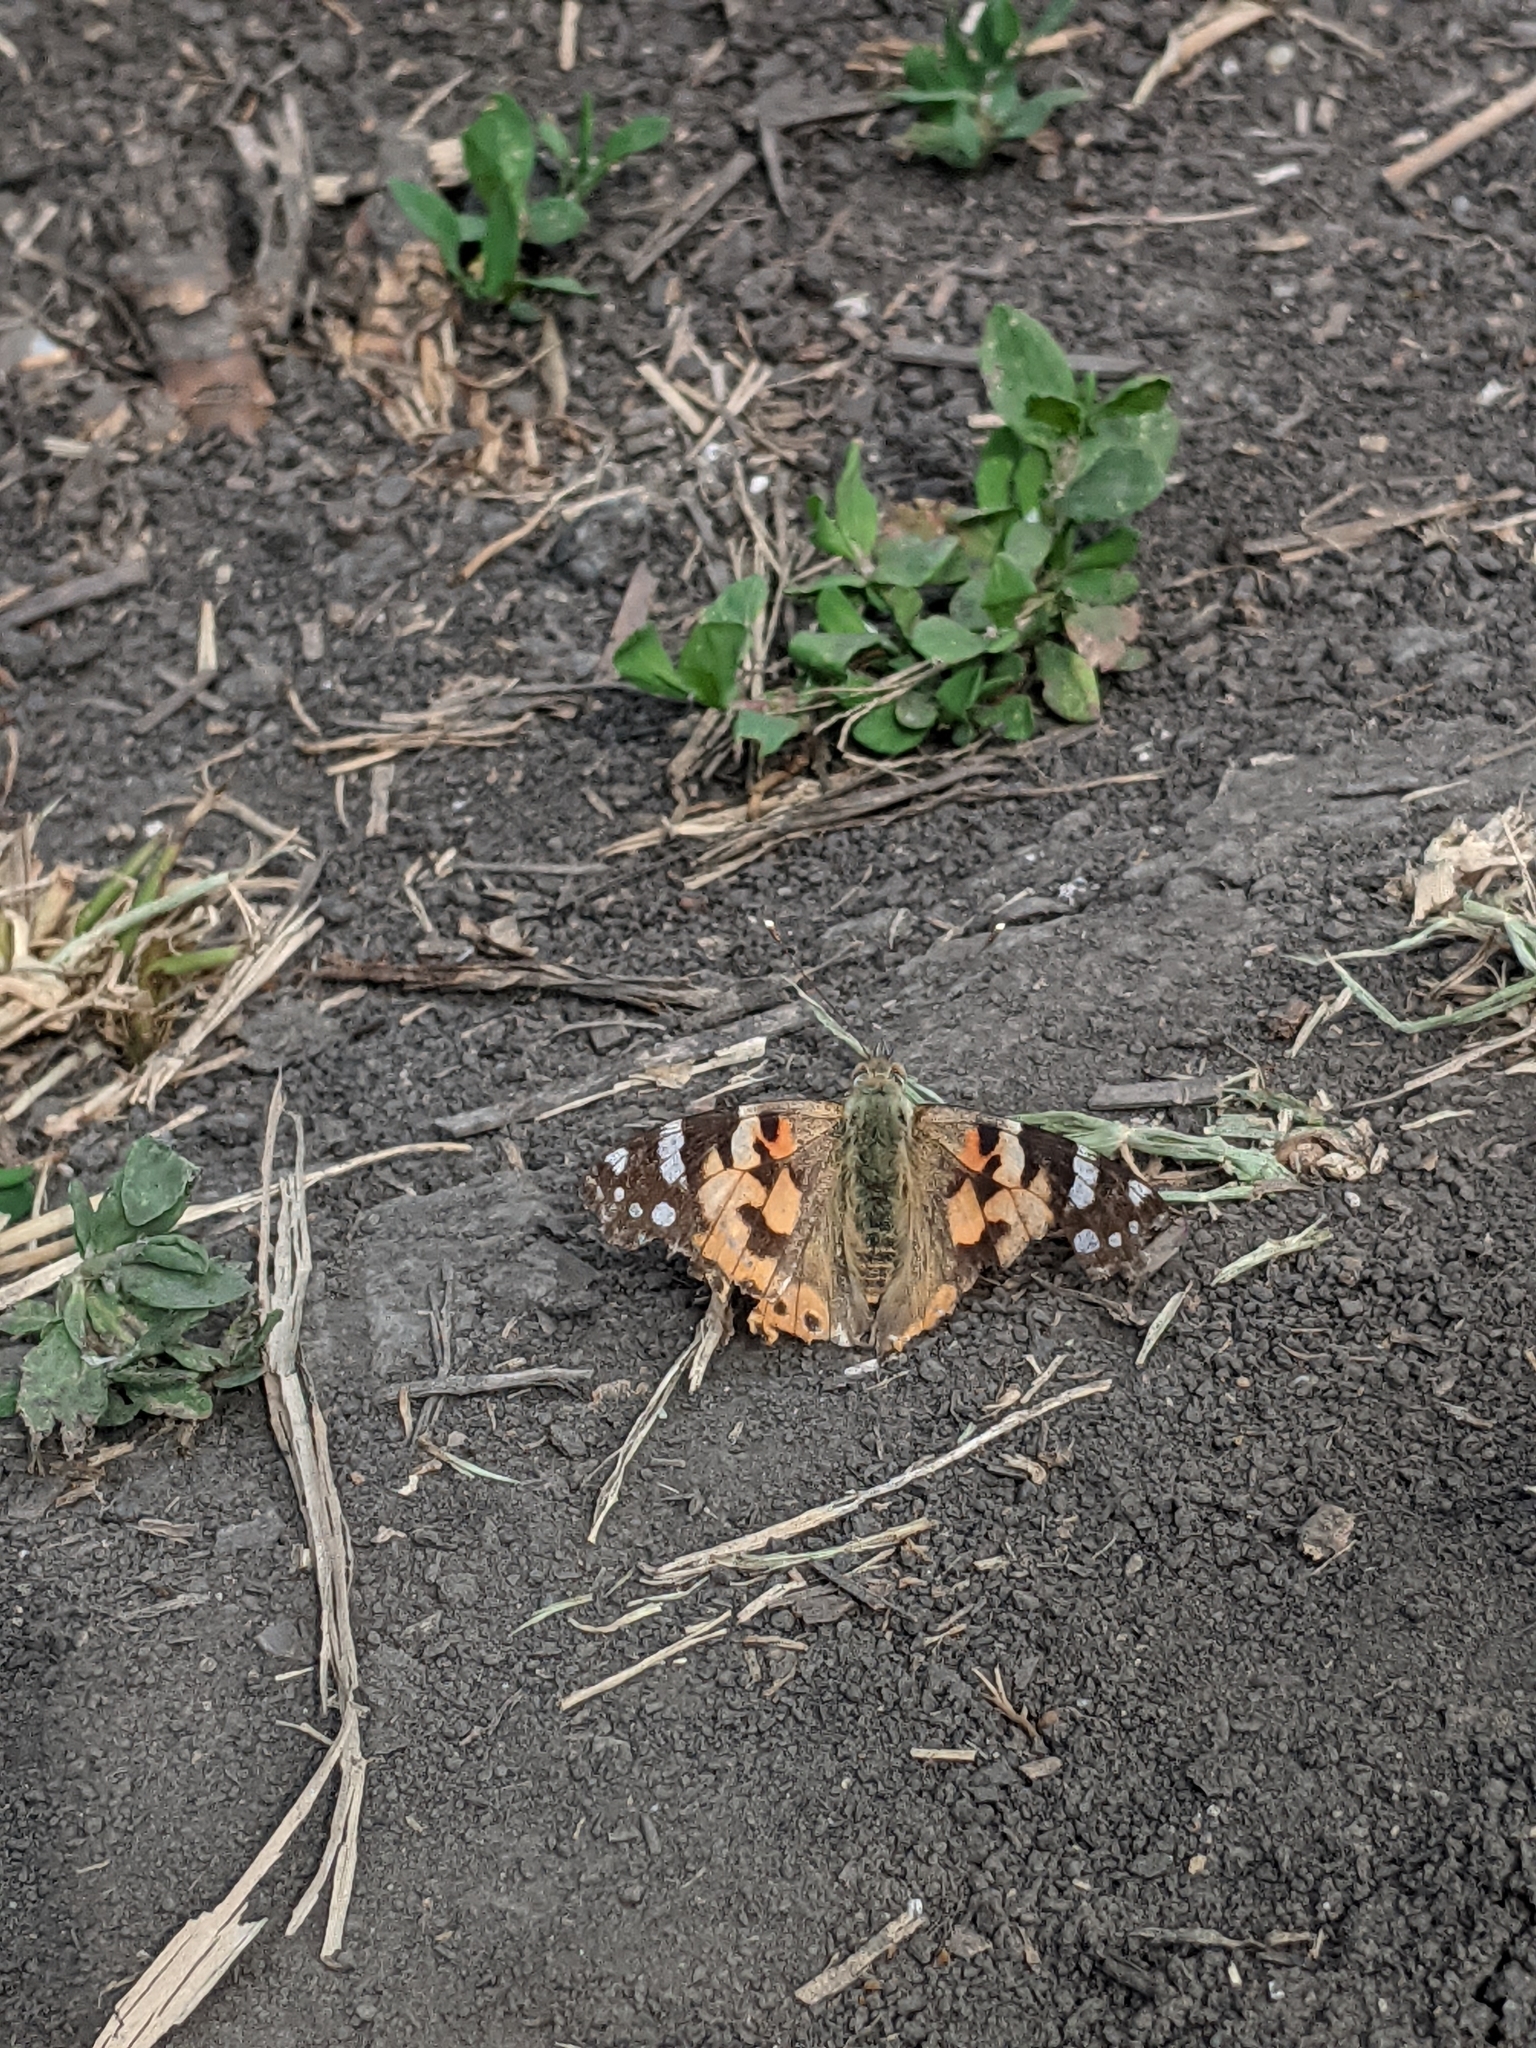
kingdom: Animalia
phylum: Arthropoda
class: Insecta
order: Lepidoptera
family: Nymphalidae
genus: Vanessa
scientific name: Vanessa cardui
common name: Painted lady
